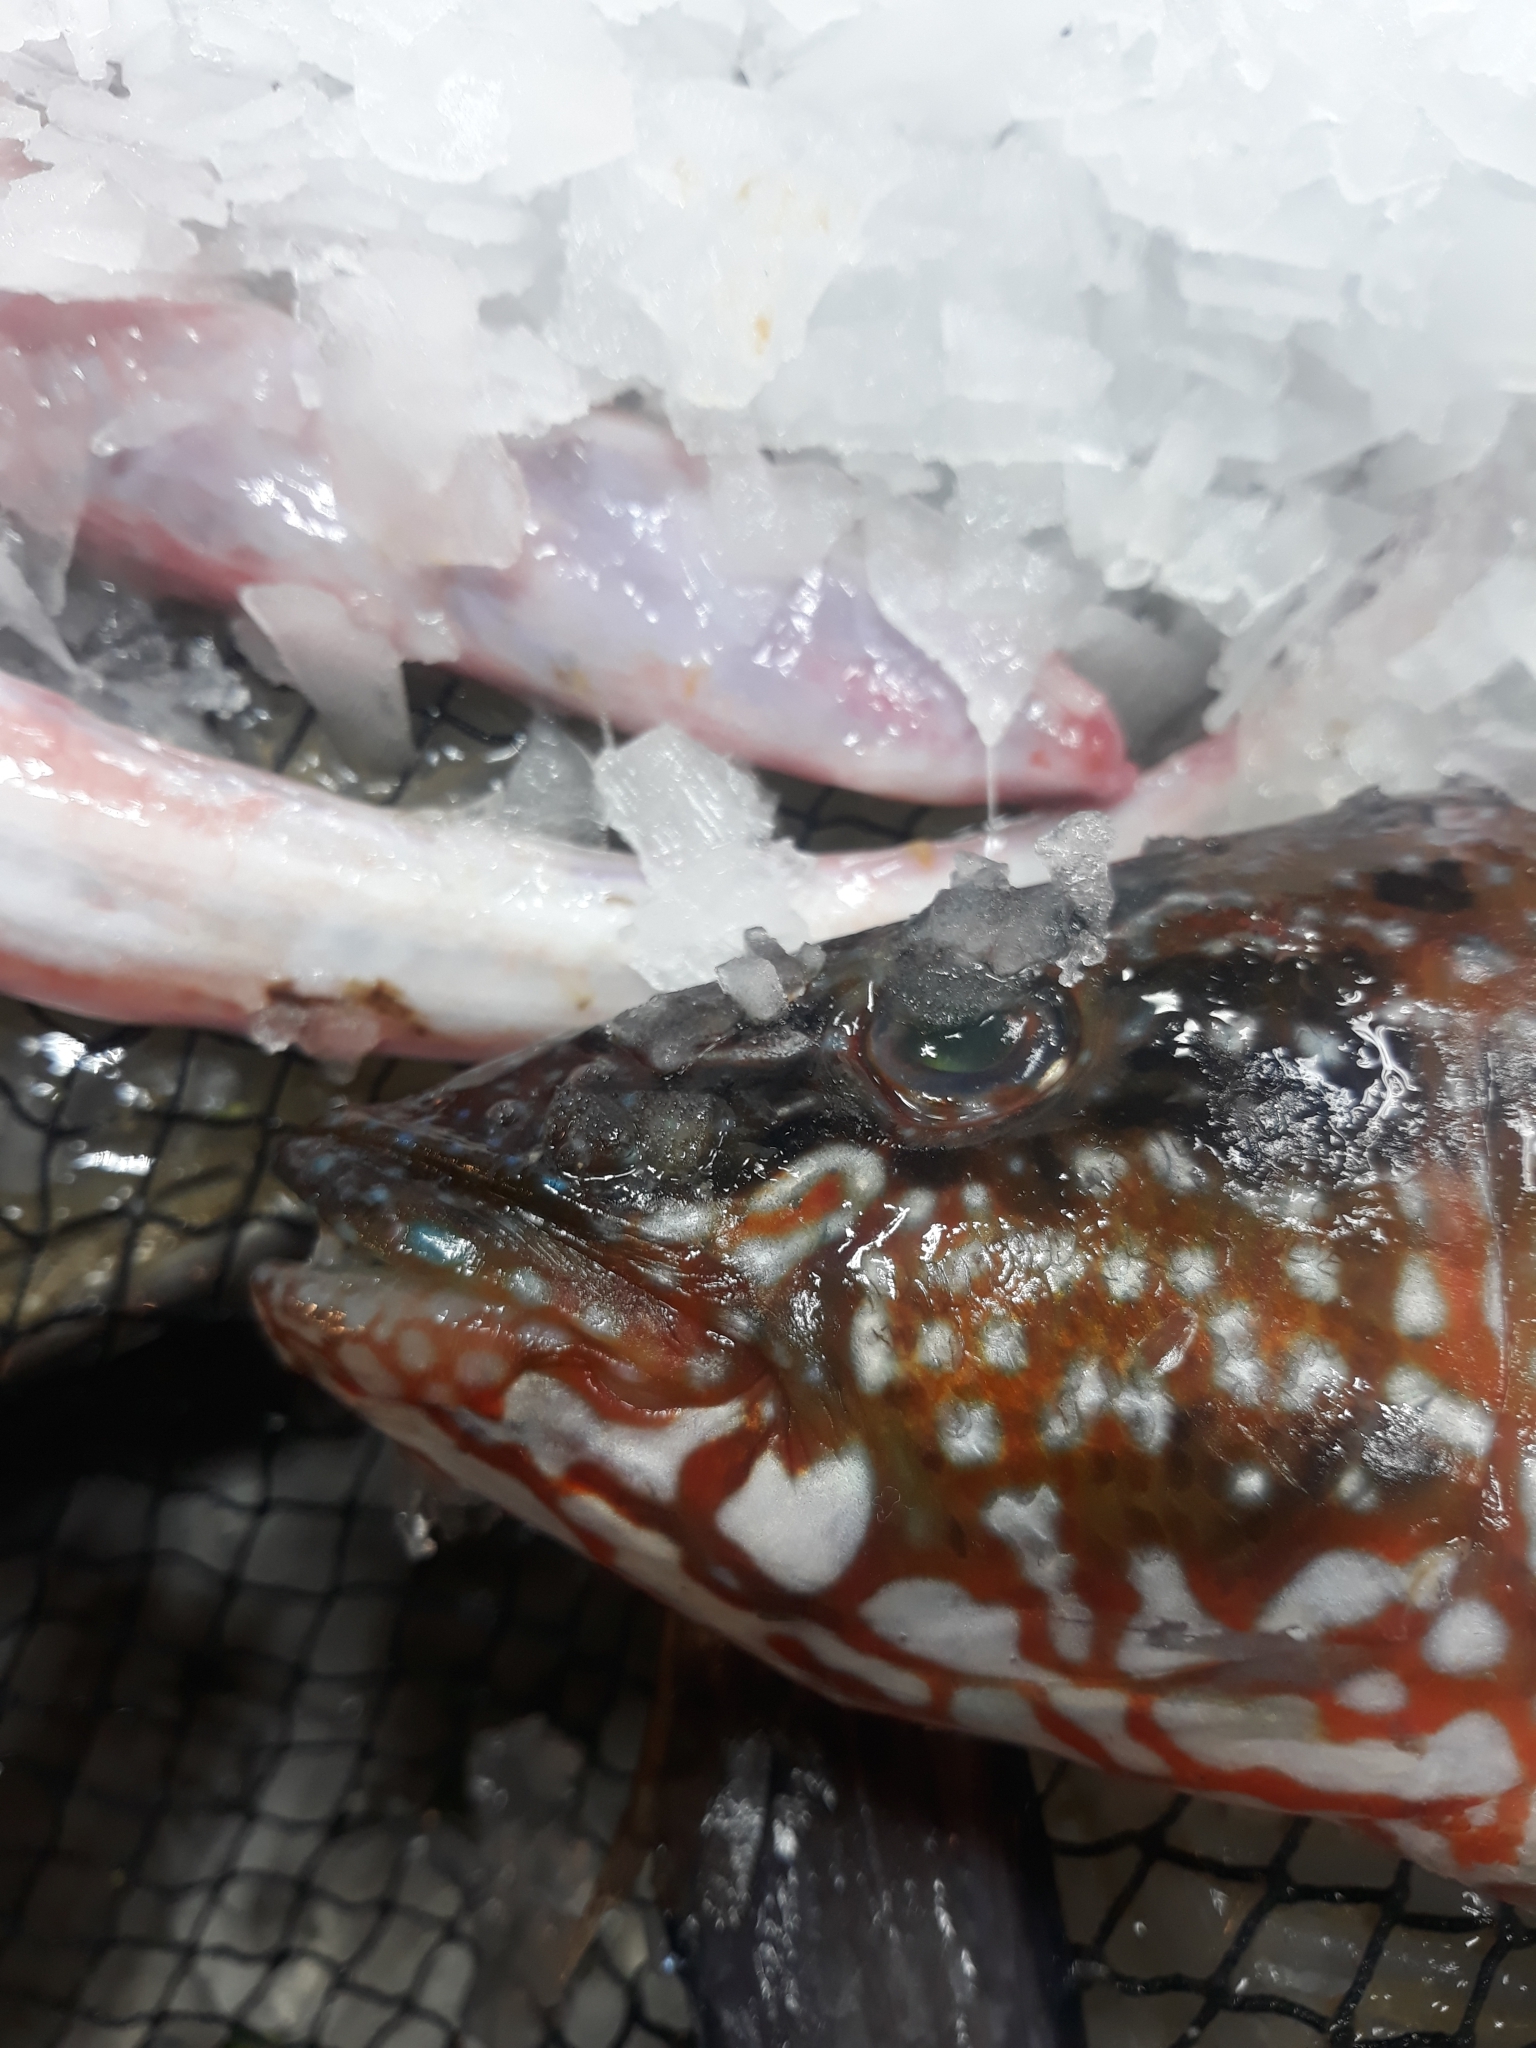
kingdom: Animalia
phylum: Chordata
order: Perciformes
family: Labridae
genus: Labrus
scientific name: Labrus viridis
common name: Green wrasse
